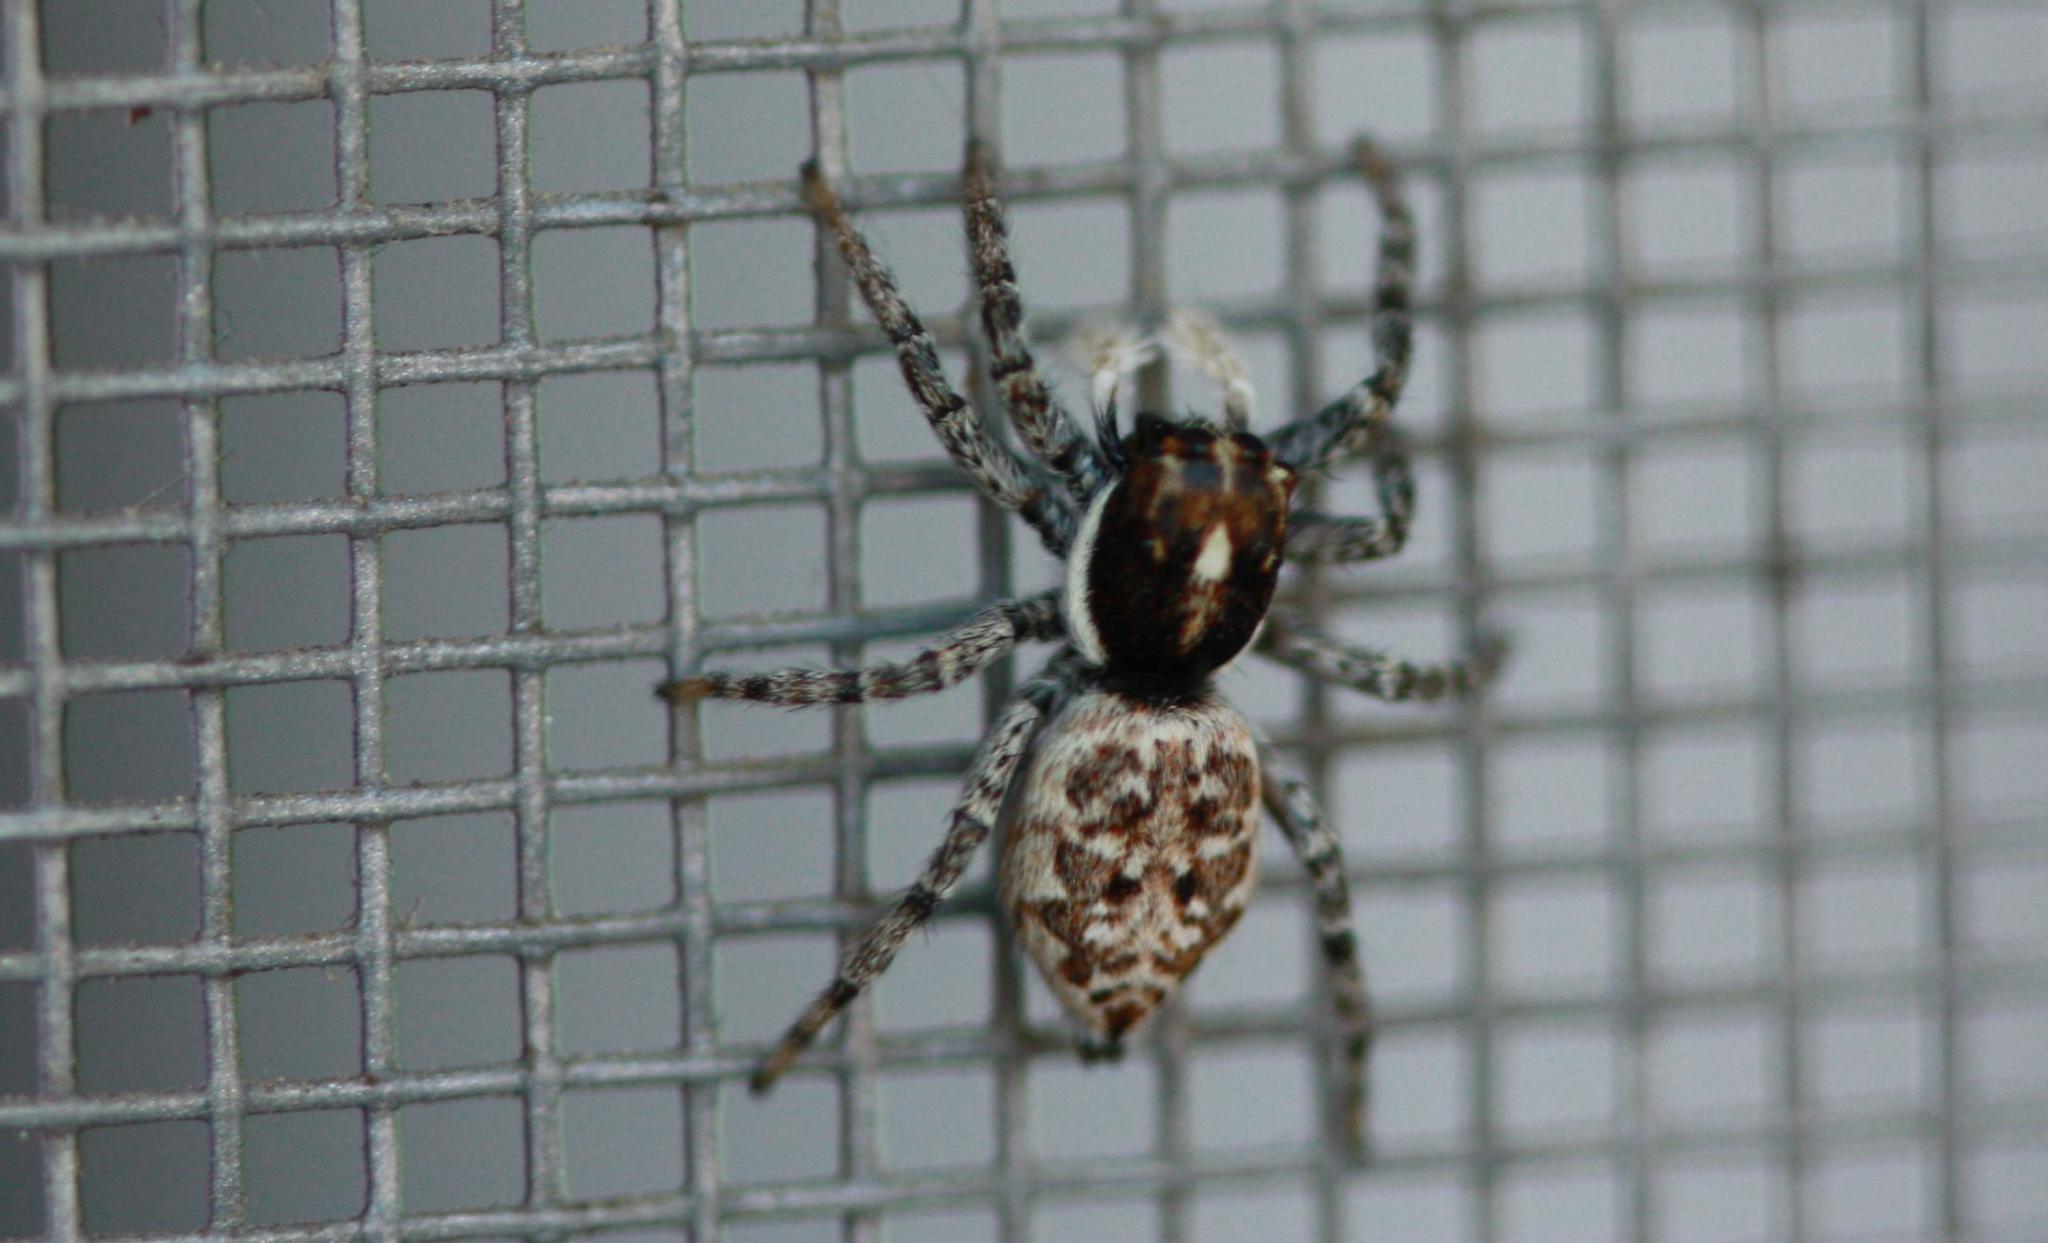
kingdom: Animalia
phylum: Arthropoda
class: Arachnida
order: Araneae
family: Salticidae
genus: Menemerus
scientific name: Menemerus semilimbatus
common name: Jumping spider
